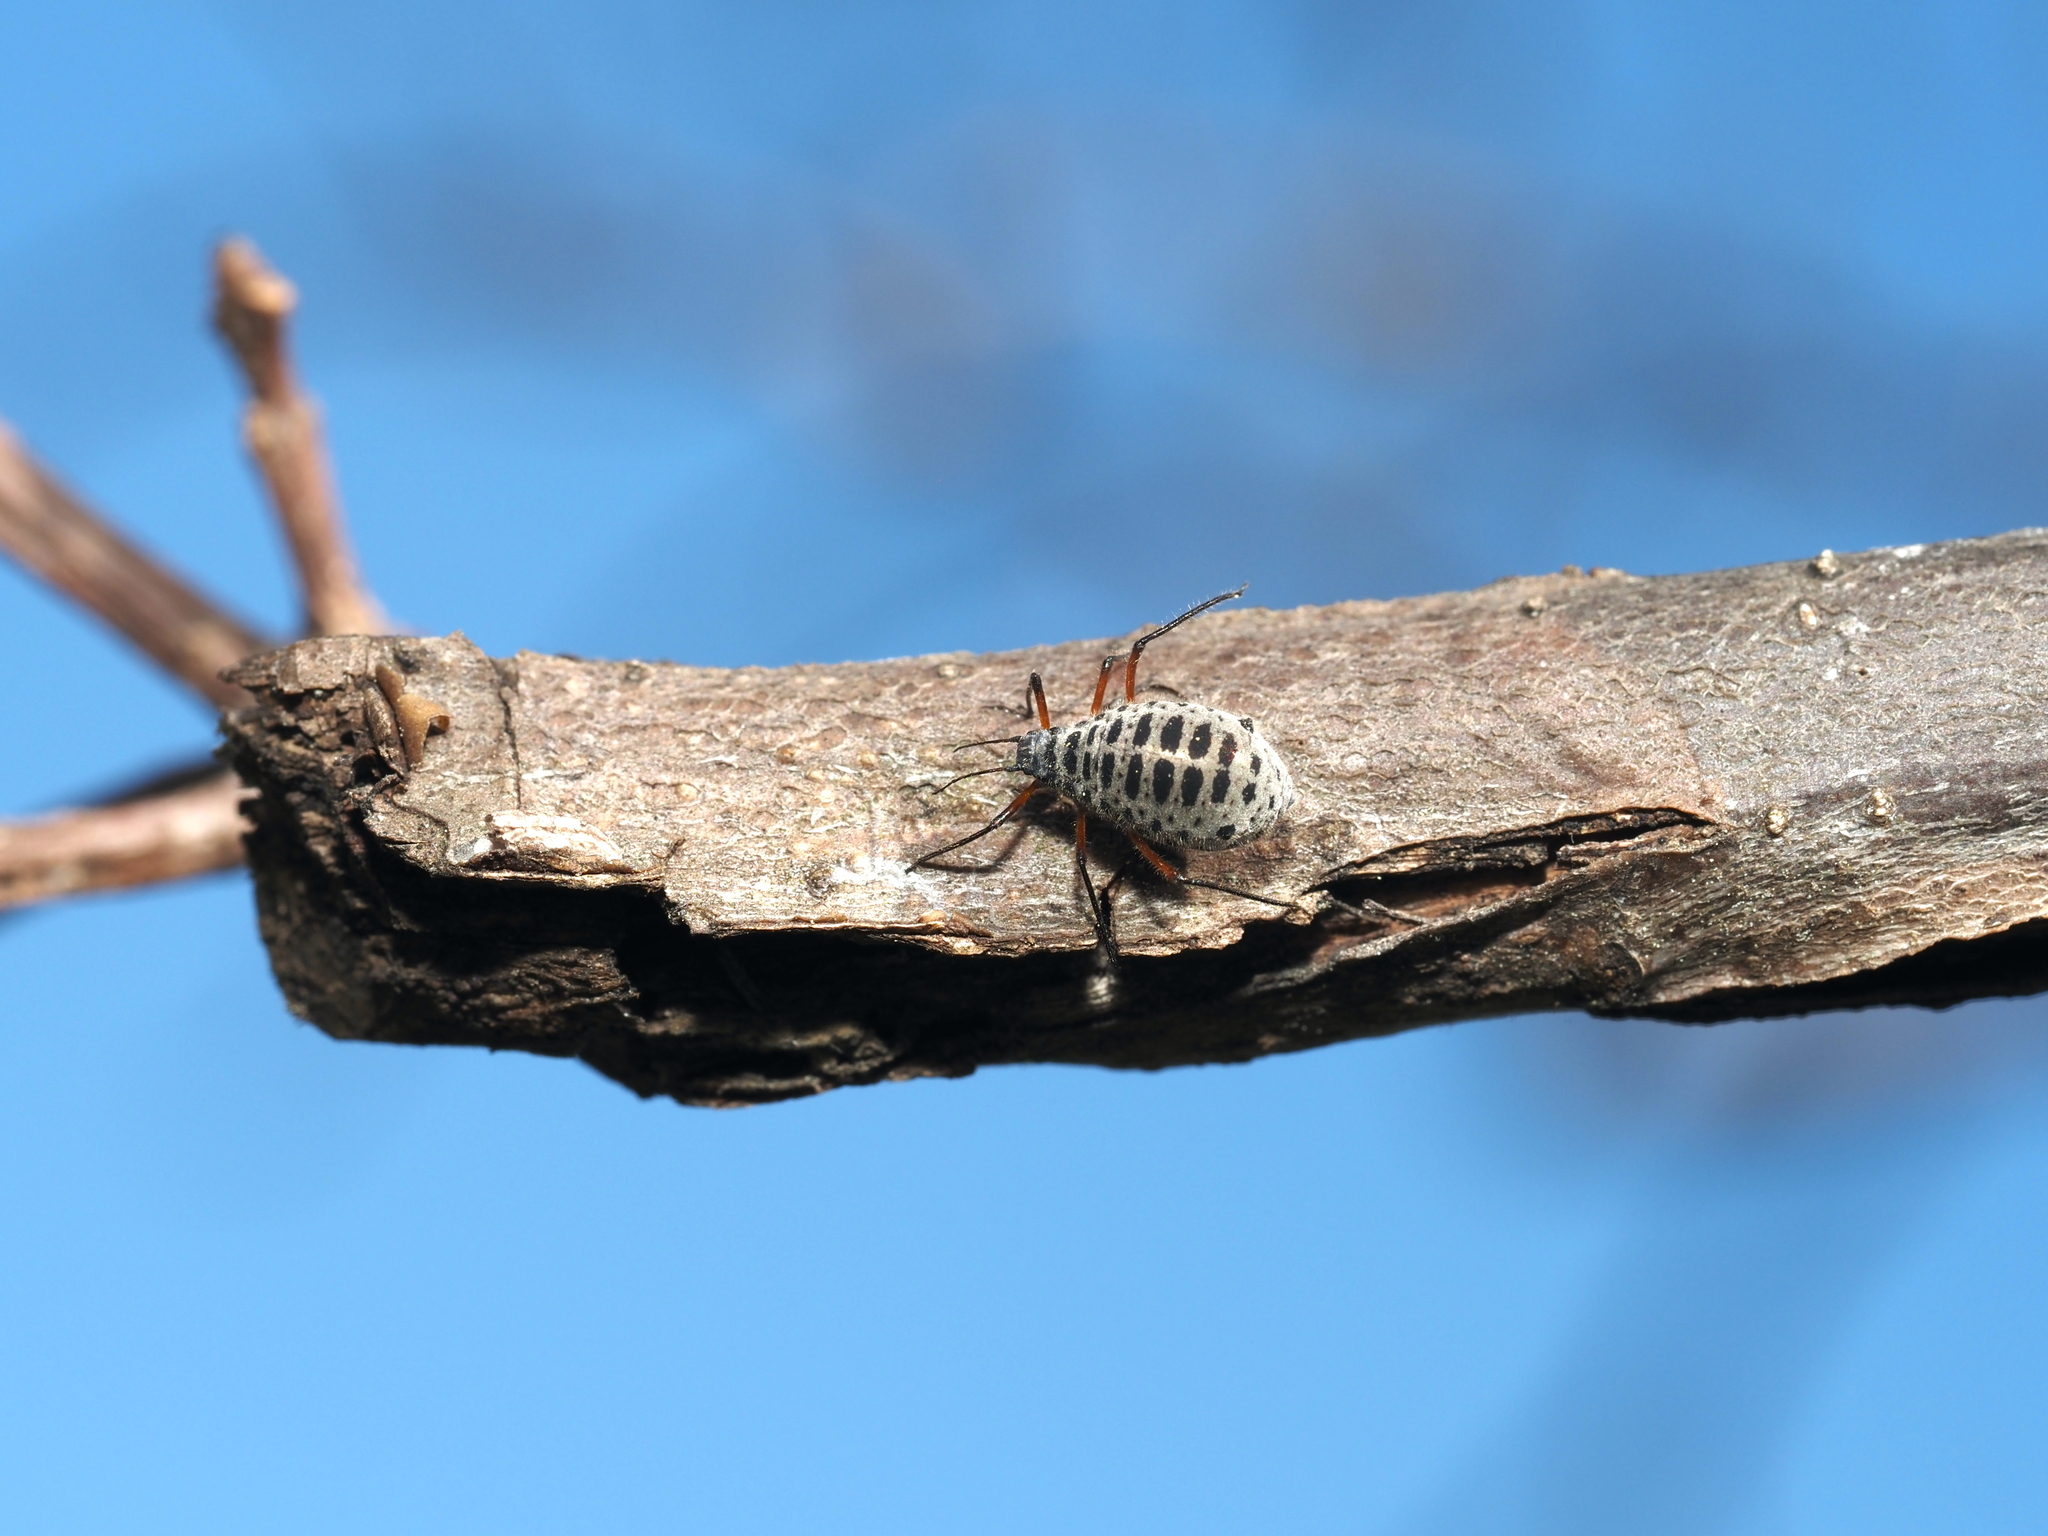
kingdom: Animalia
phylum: Arthropoda
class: Insecta
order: Hemiptera
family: Aphididae
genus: Longistigma
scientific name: Longistigma caryae
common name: Giant bark aphid
